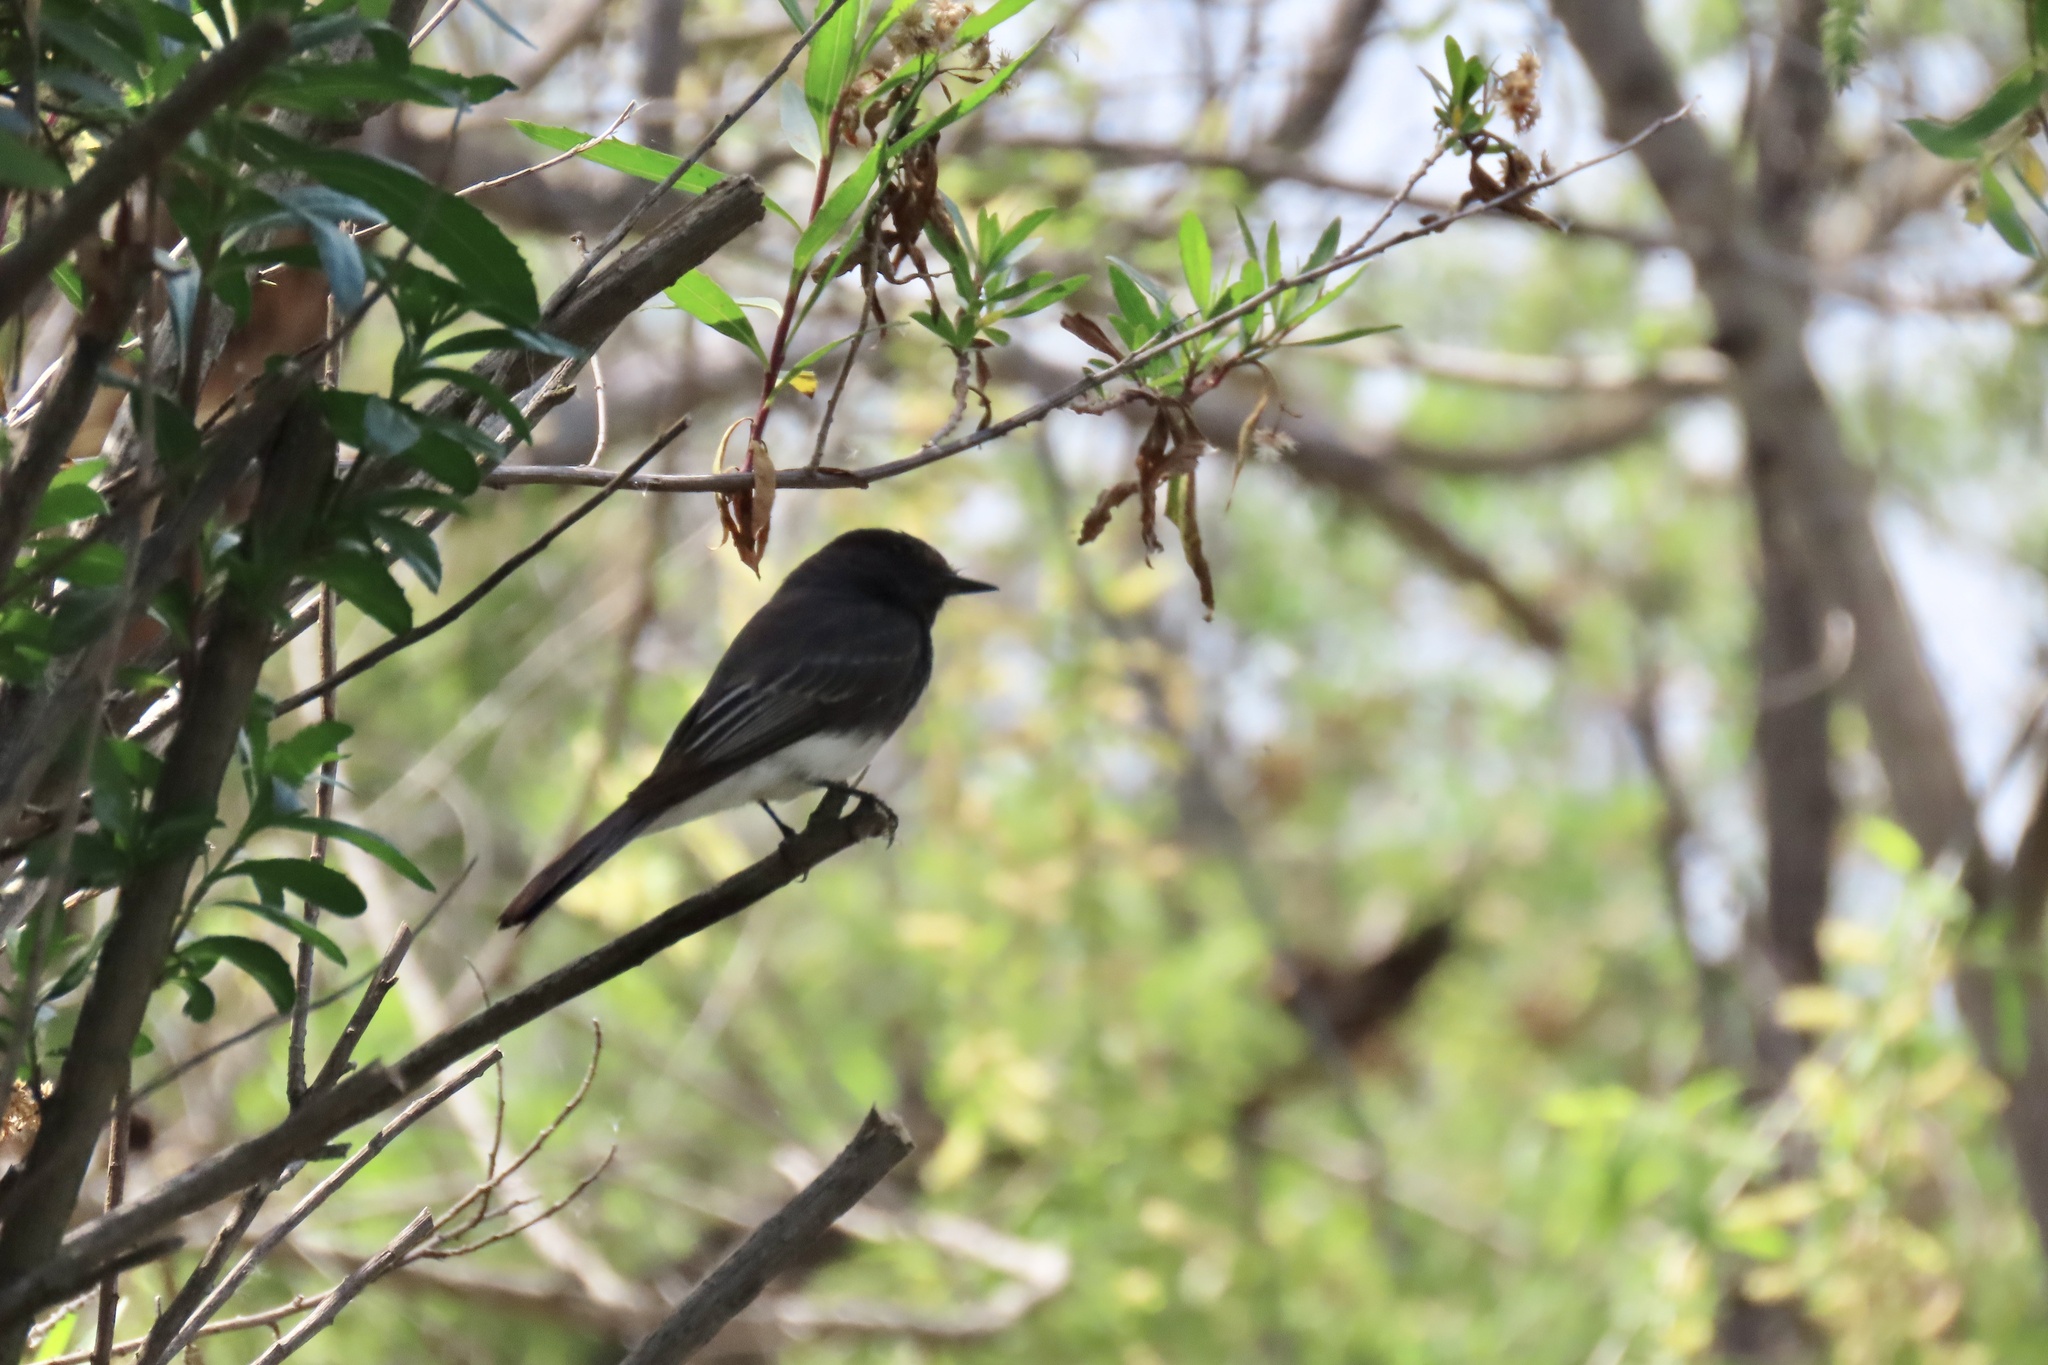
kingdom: Animalia
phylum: Chordata
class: Aves
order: Passeriformes
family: Tyrannidae
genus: Sayornis
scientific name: Sayornis nigricans
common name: Black phoebe
